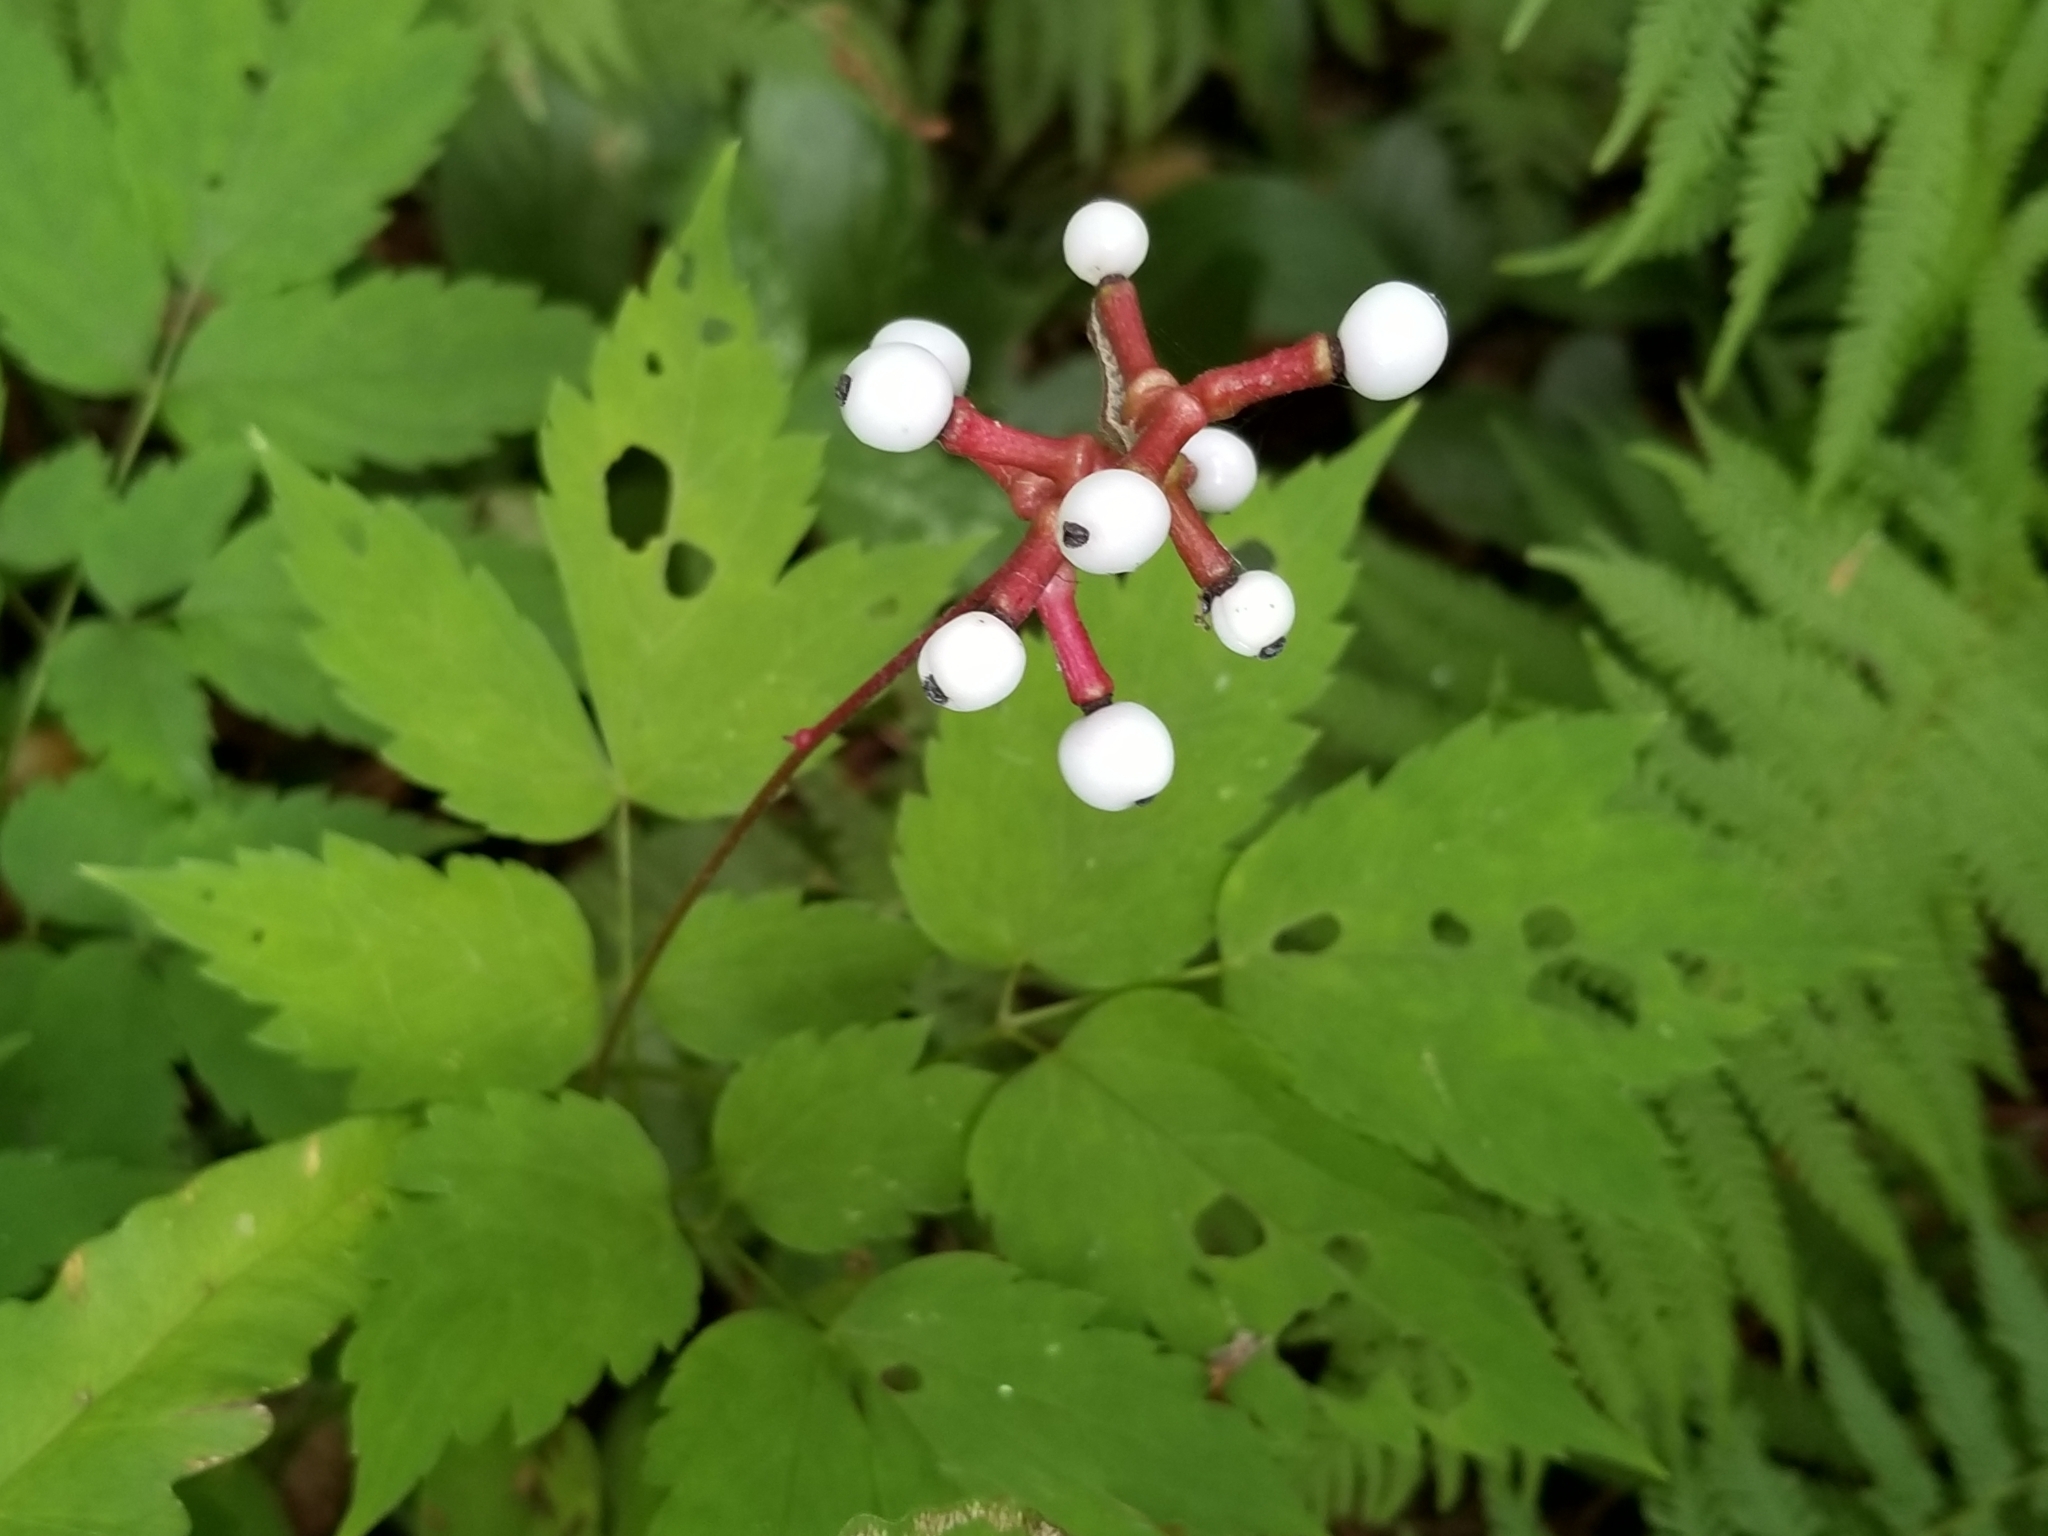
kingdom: Plantae
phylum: Tracheophyta
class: Magnoliopsida
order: Ranunculales
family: Ranunculaceae
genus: Actaea
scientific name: Actaea pachypoda
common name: Doll's-eyes
